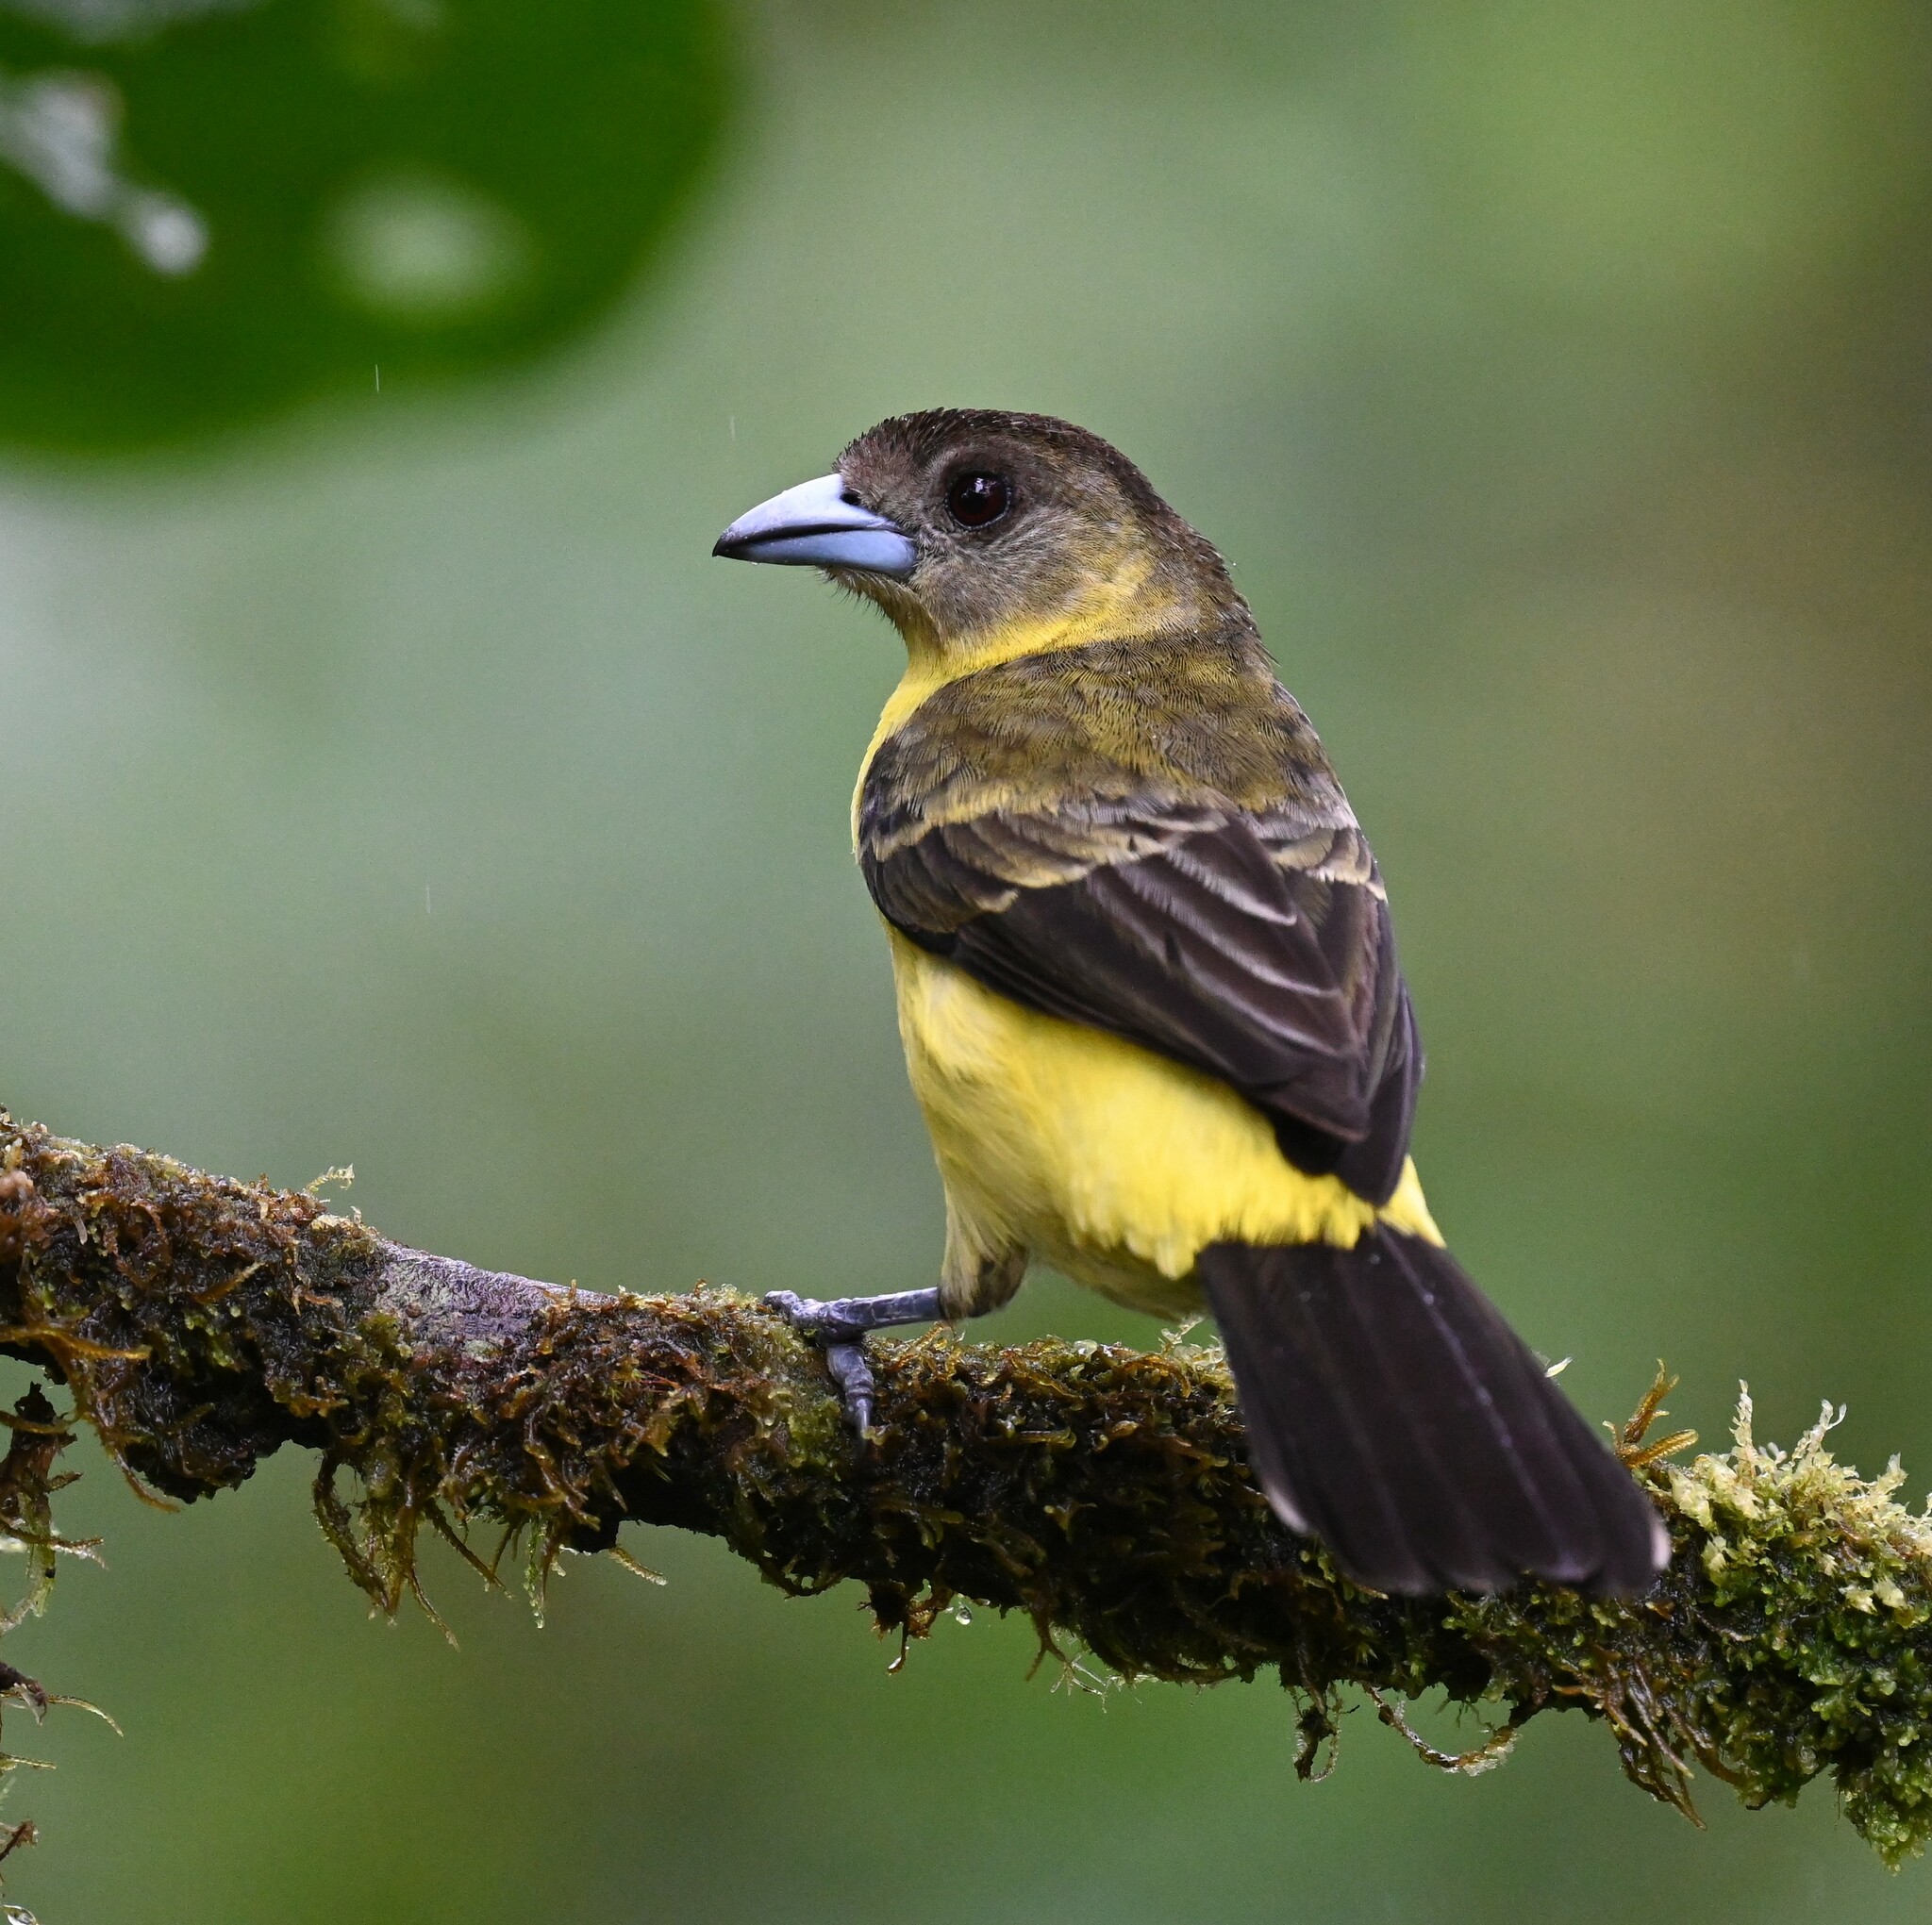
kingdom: Animalia
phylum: Chordata
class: Aves
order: Passeriformes
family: Thraupidae
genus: Ramphocelus
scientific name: Ramphocelus flammigerus
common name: Flame-rumped tanager
